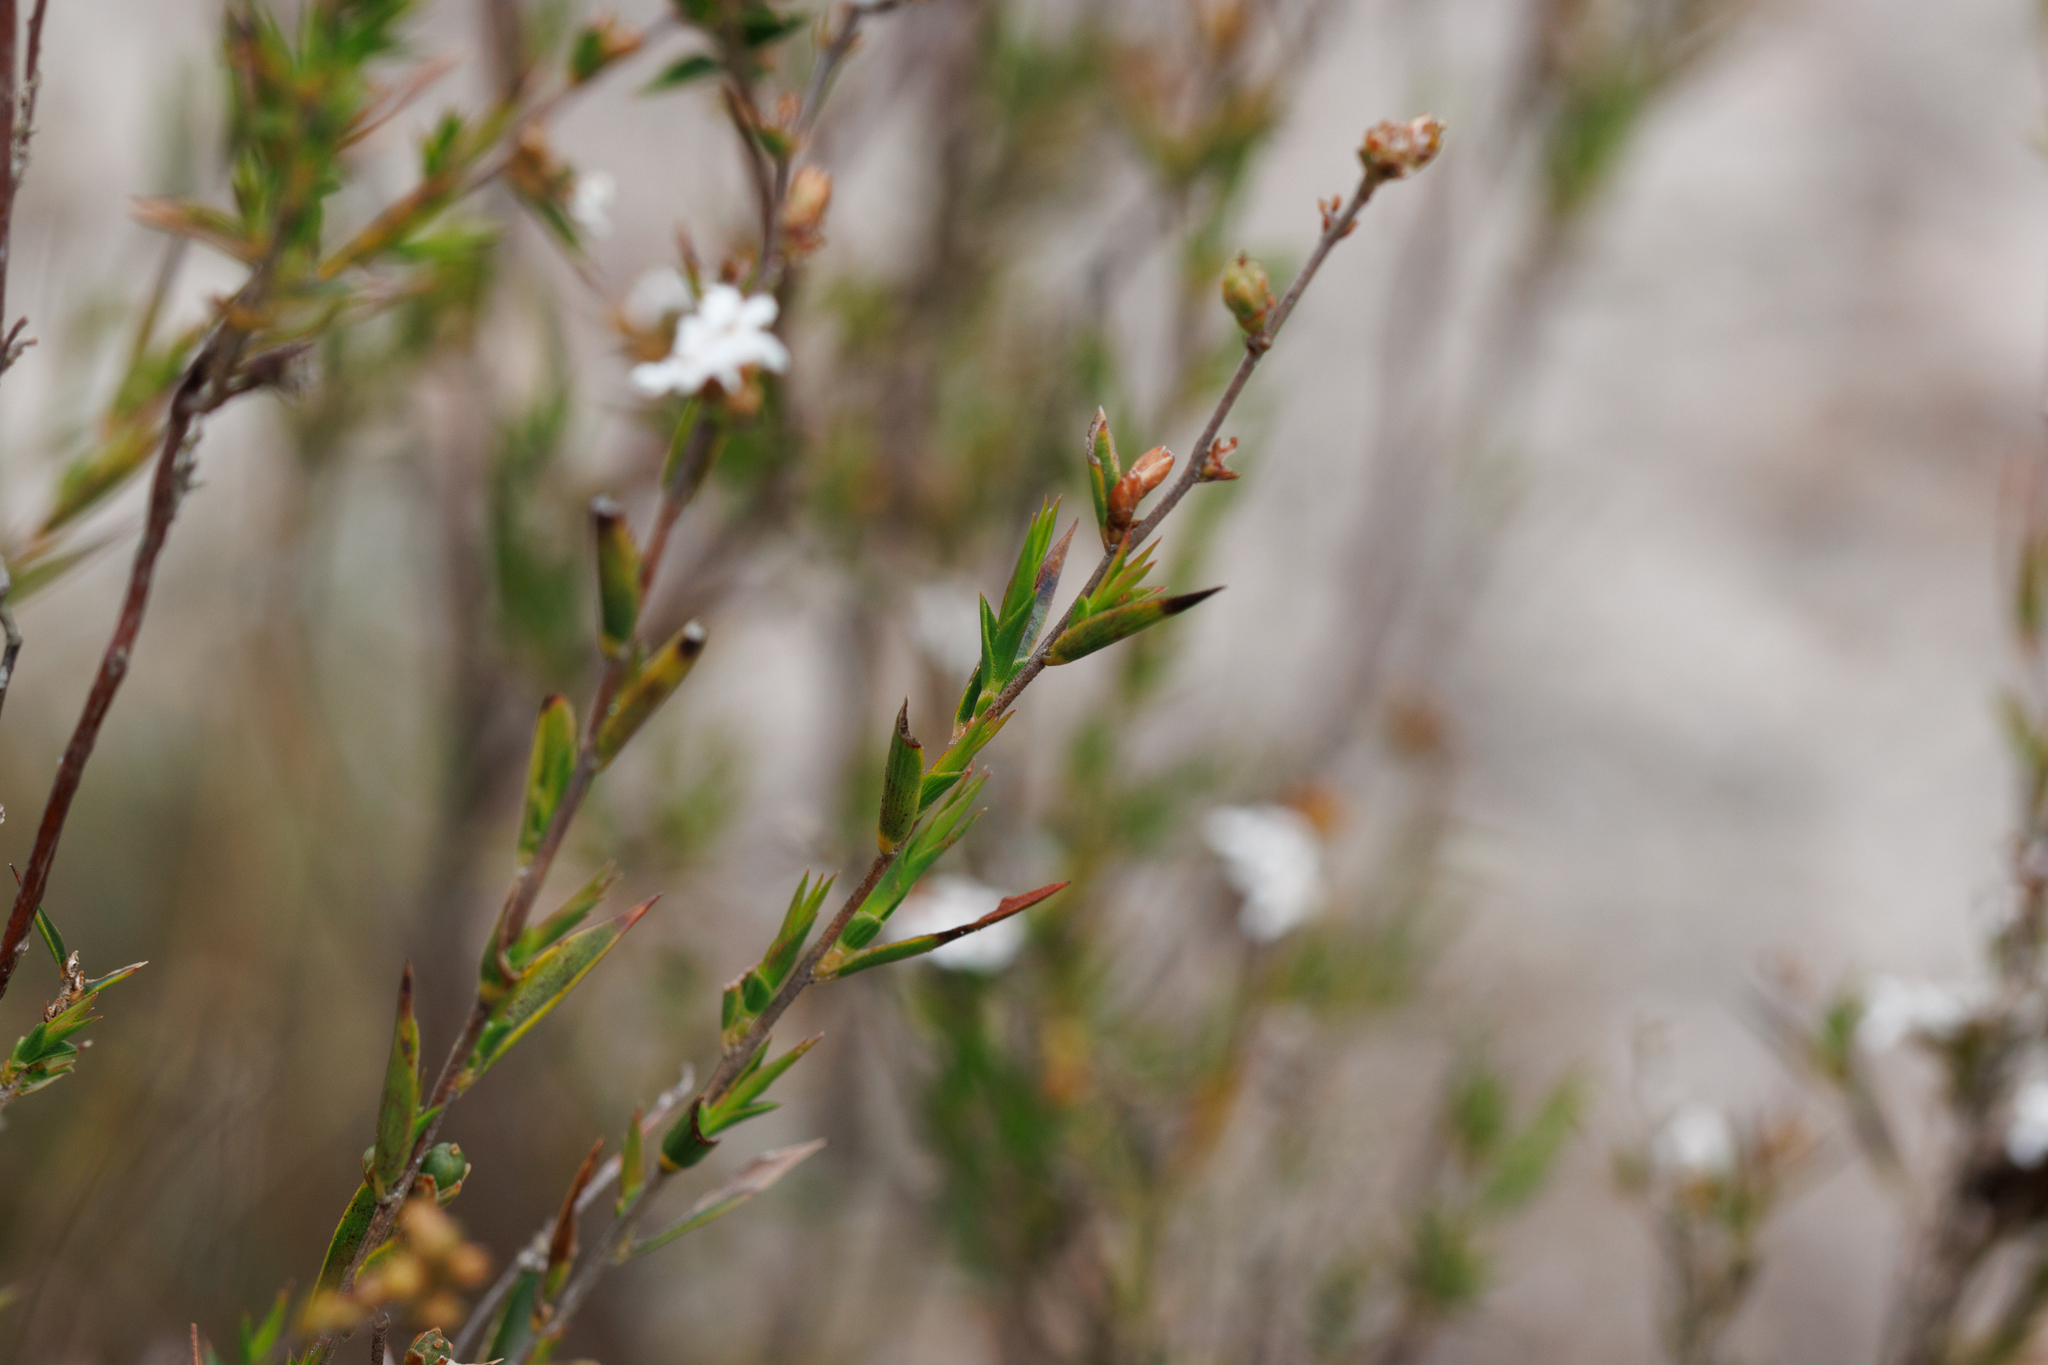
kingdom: Plantae
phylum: Tracheophyta
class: Magnoliopsida
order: Ericales
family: Ericaceae
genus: Leucopogon
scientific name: Leucopogon virgatus
